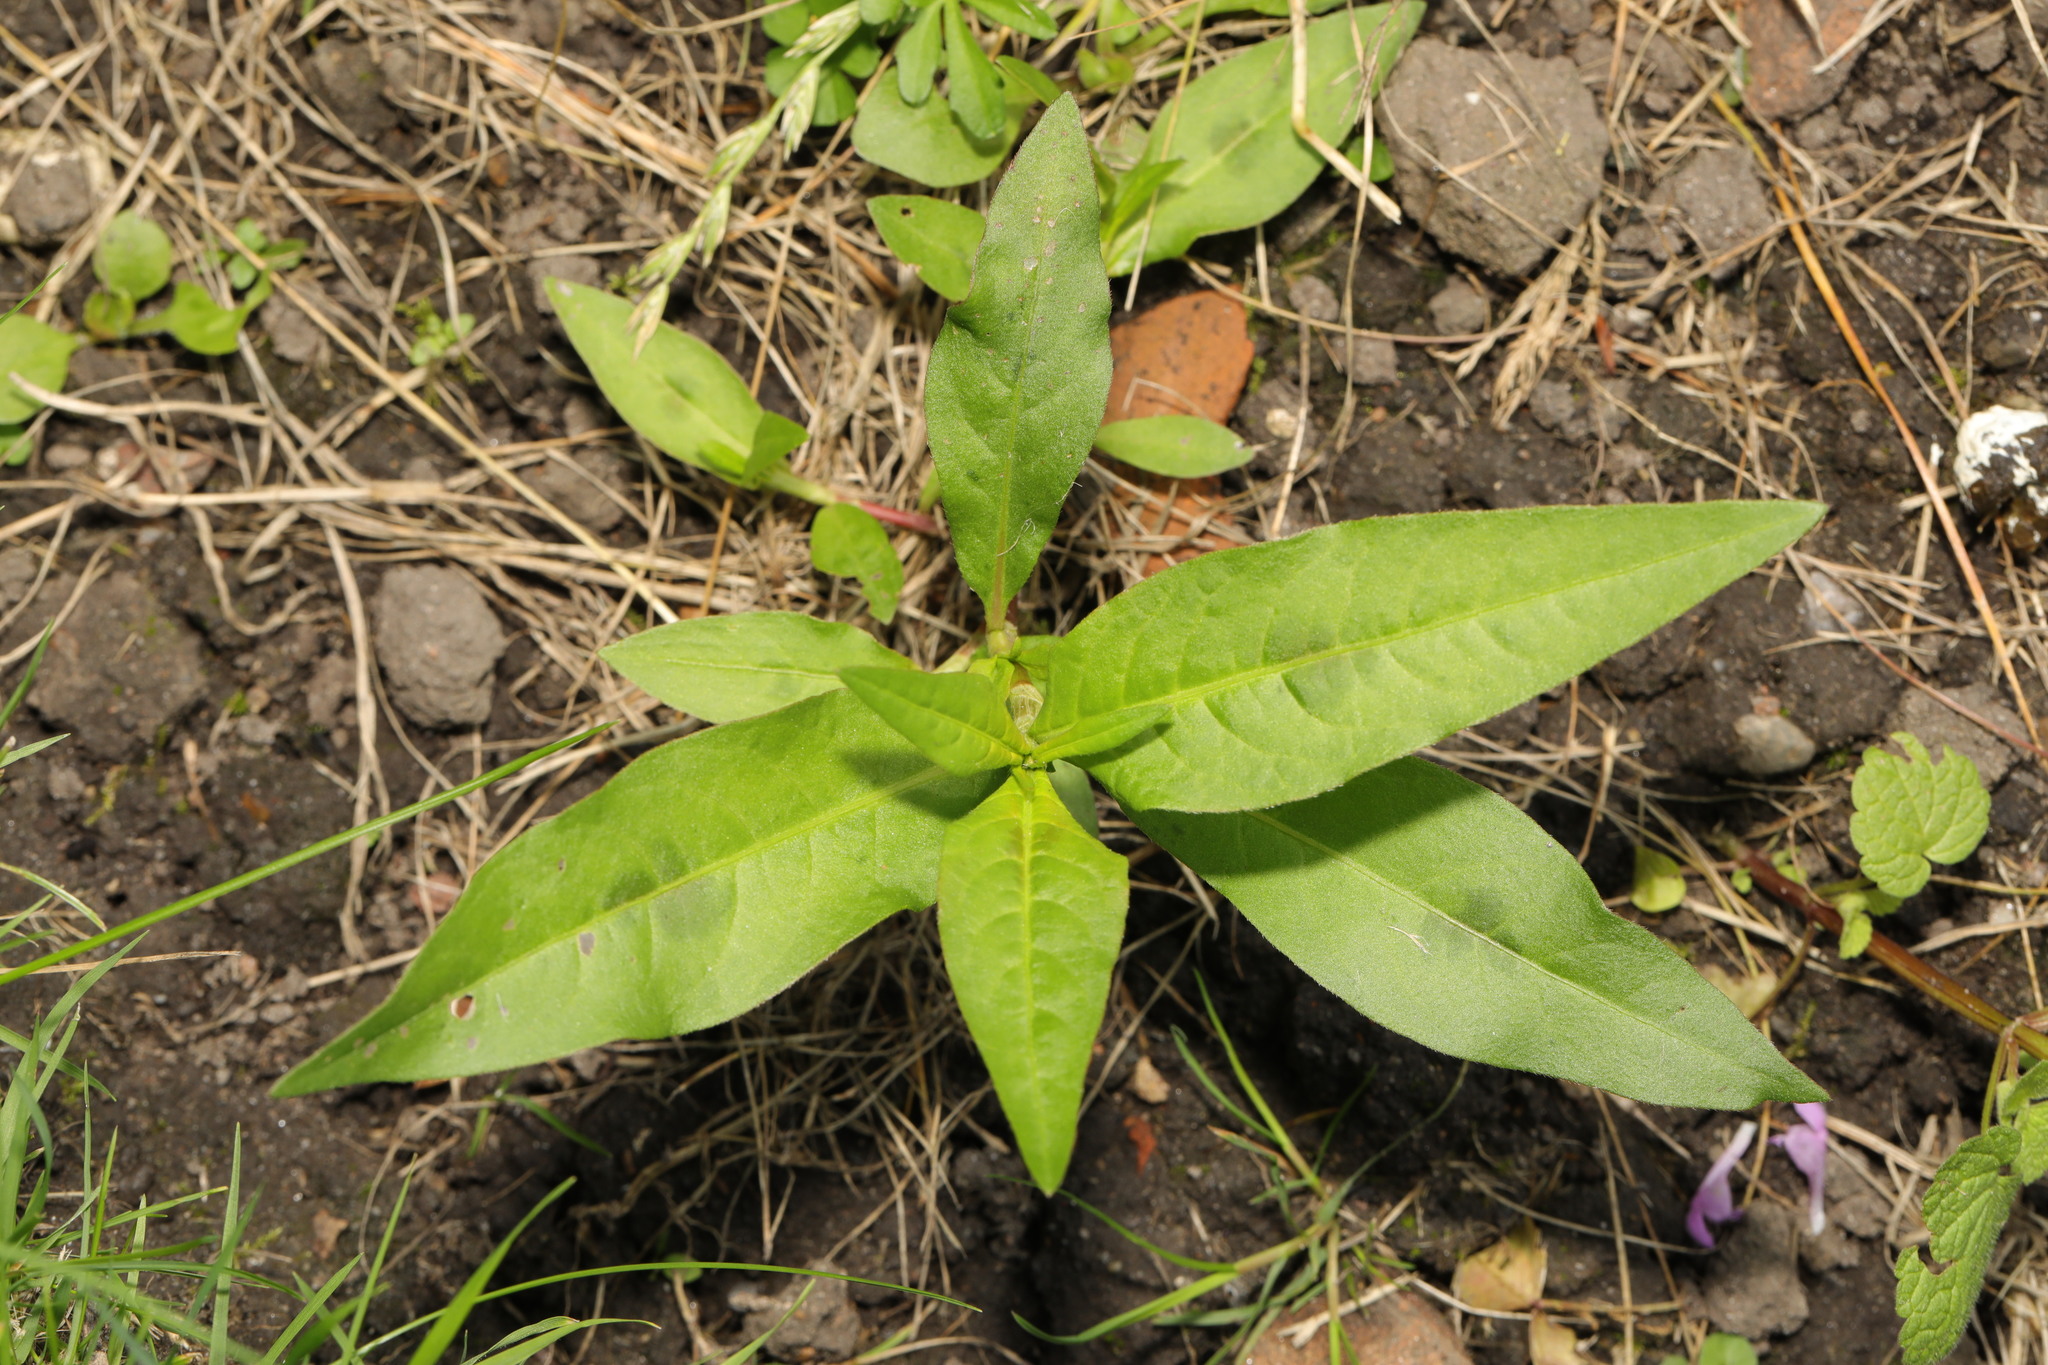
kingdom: Plantae
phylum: Tracheophyta
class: Magnoliopsida
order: Caryophyllales
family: Polygonaceae
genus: Persicaria
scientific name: Persicaria maculosa
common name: Redshank
